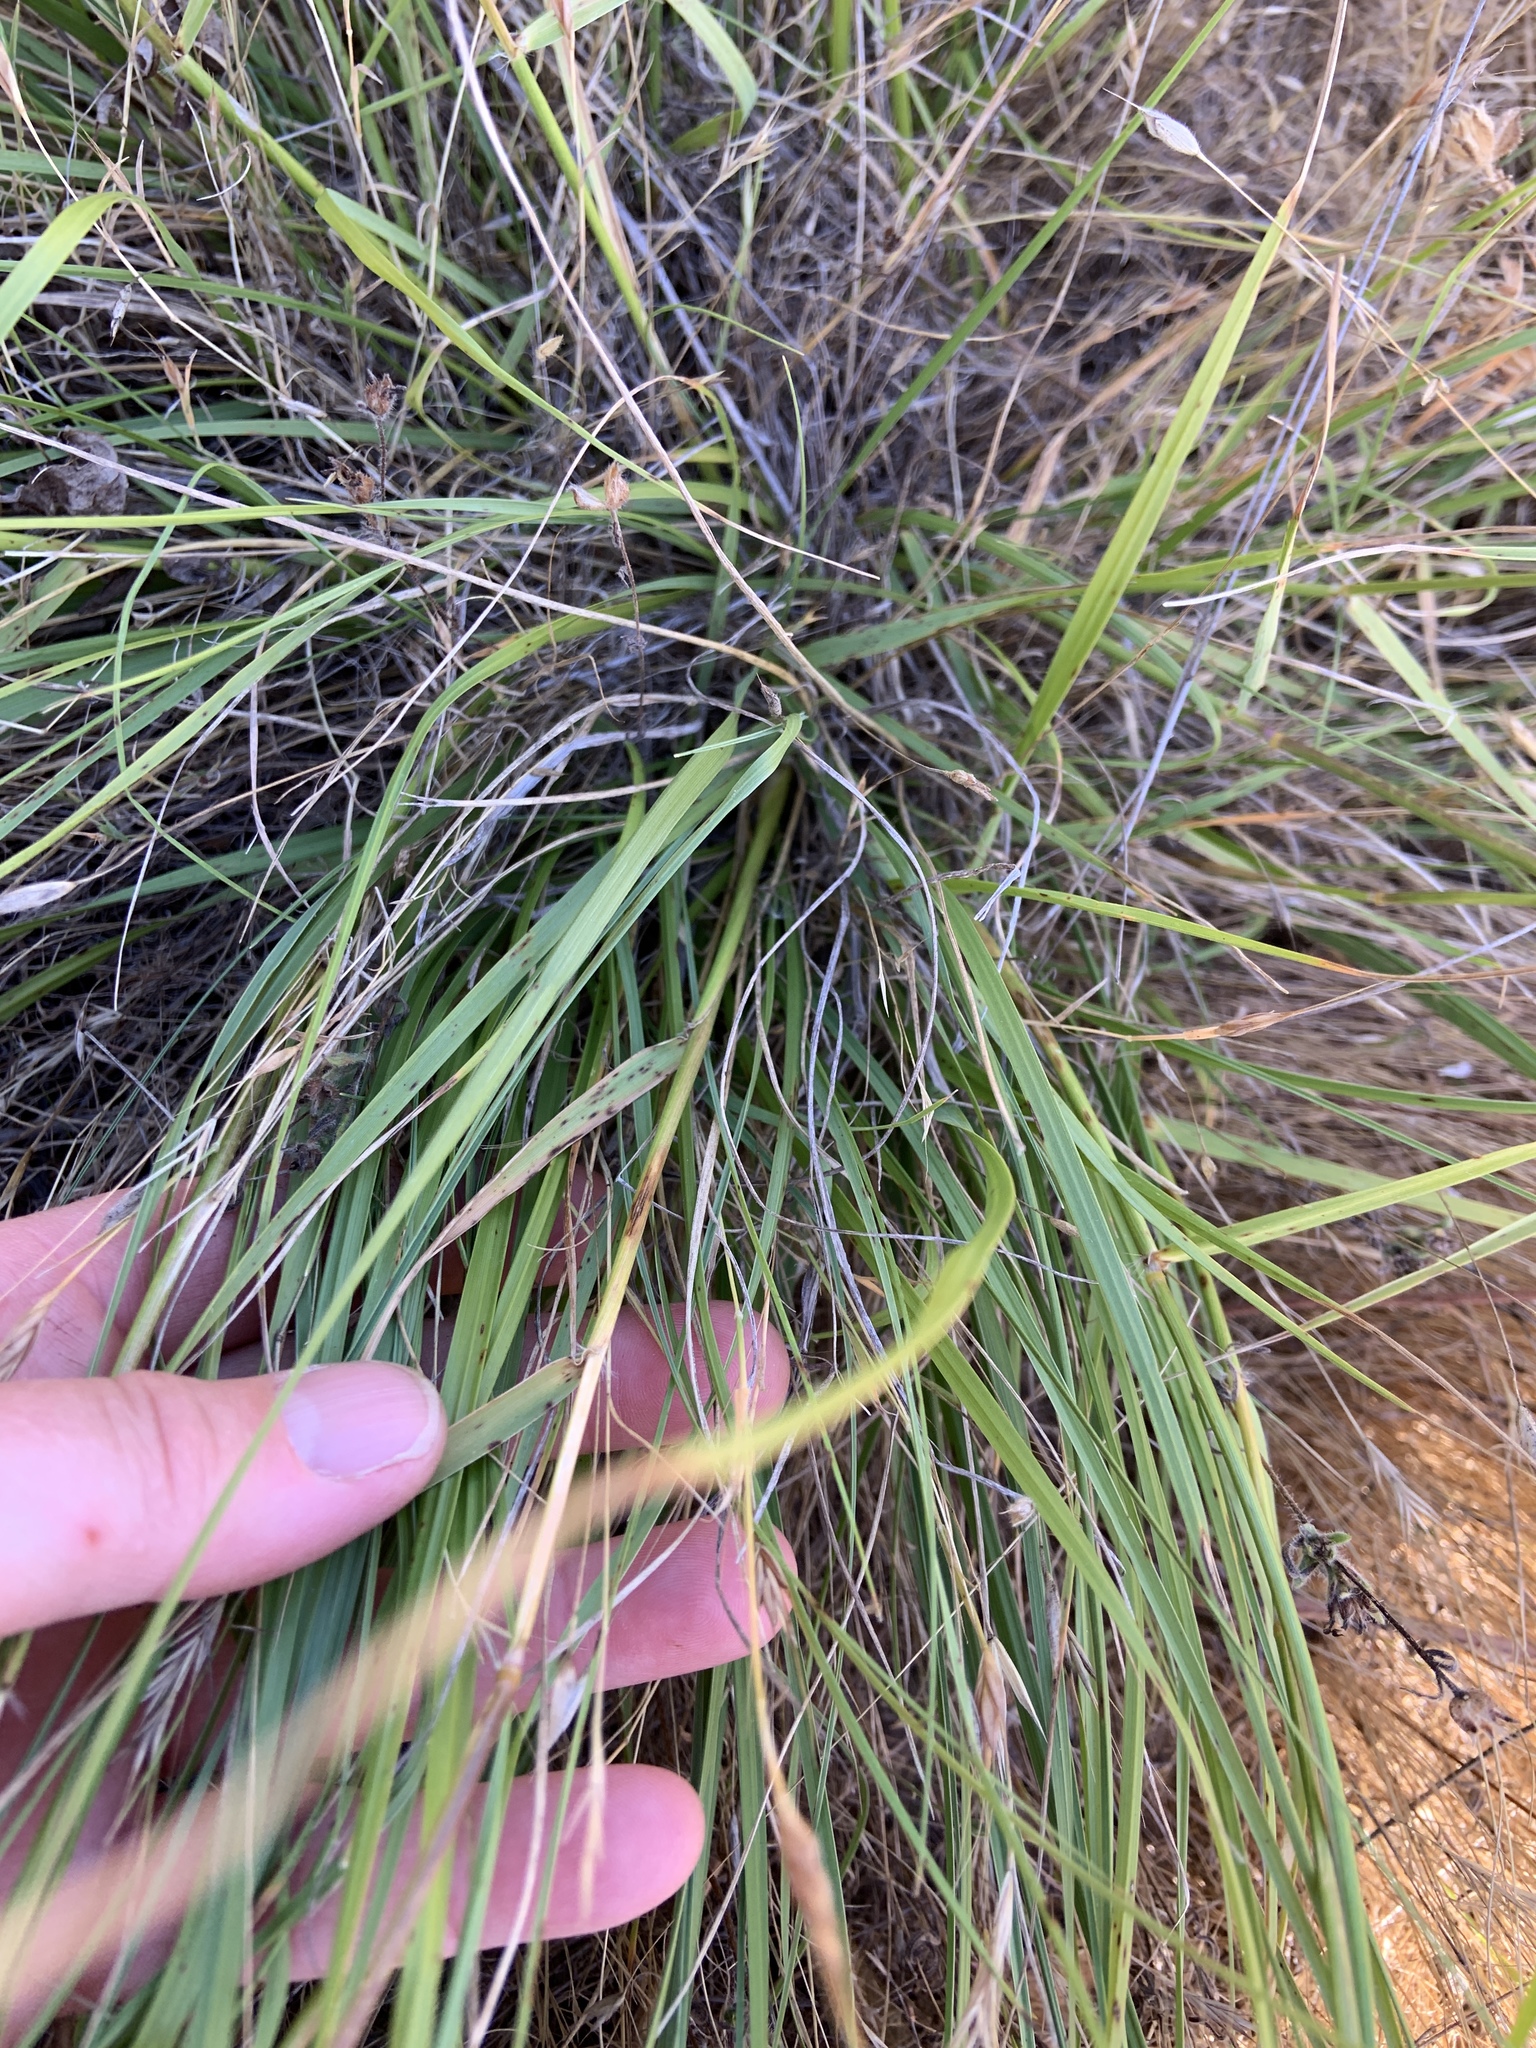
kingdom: Plantae
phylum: Tracheophyta
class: Liliopsida
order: Poales
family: Poaceae
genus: Danthonia
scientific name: Danthonia californica
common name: California oat grass
